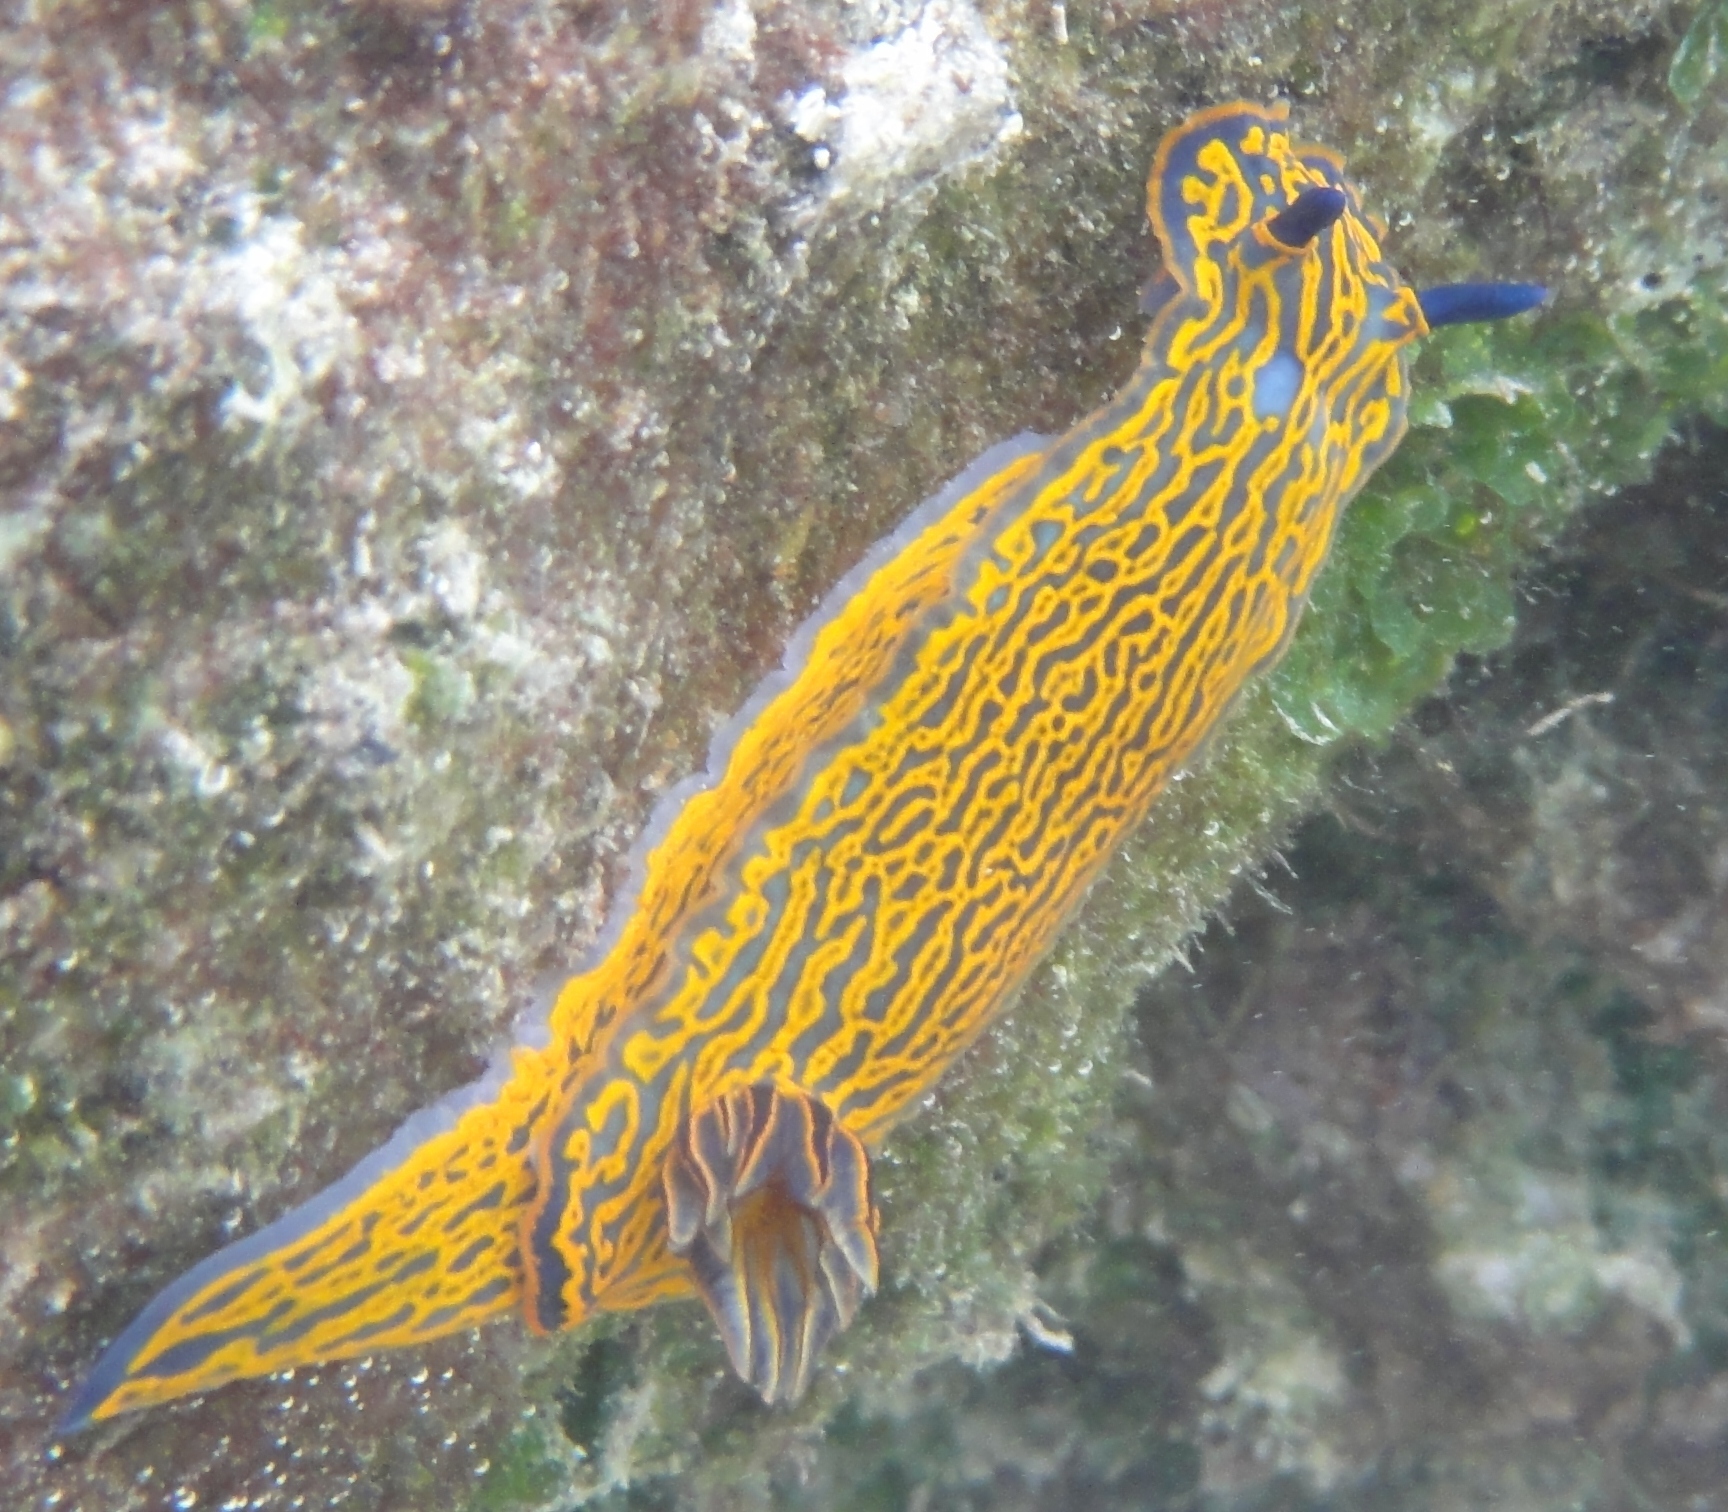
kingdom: Animalia
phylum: Mollusca
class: Gastropoda
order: Nudibranchia
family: Chromodorididae
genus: Felimare
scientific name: Felimare zebra
